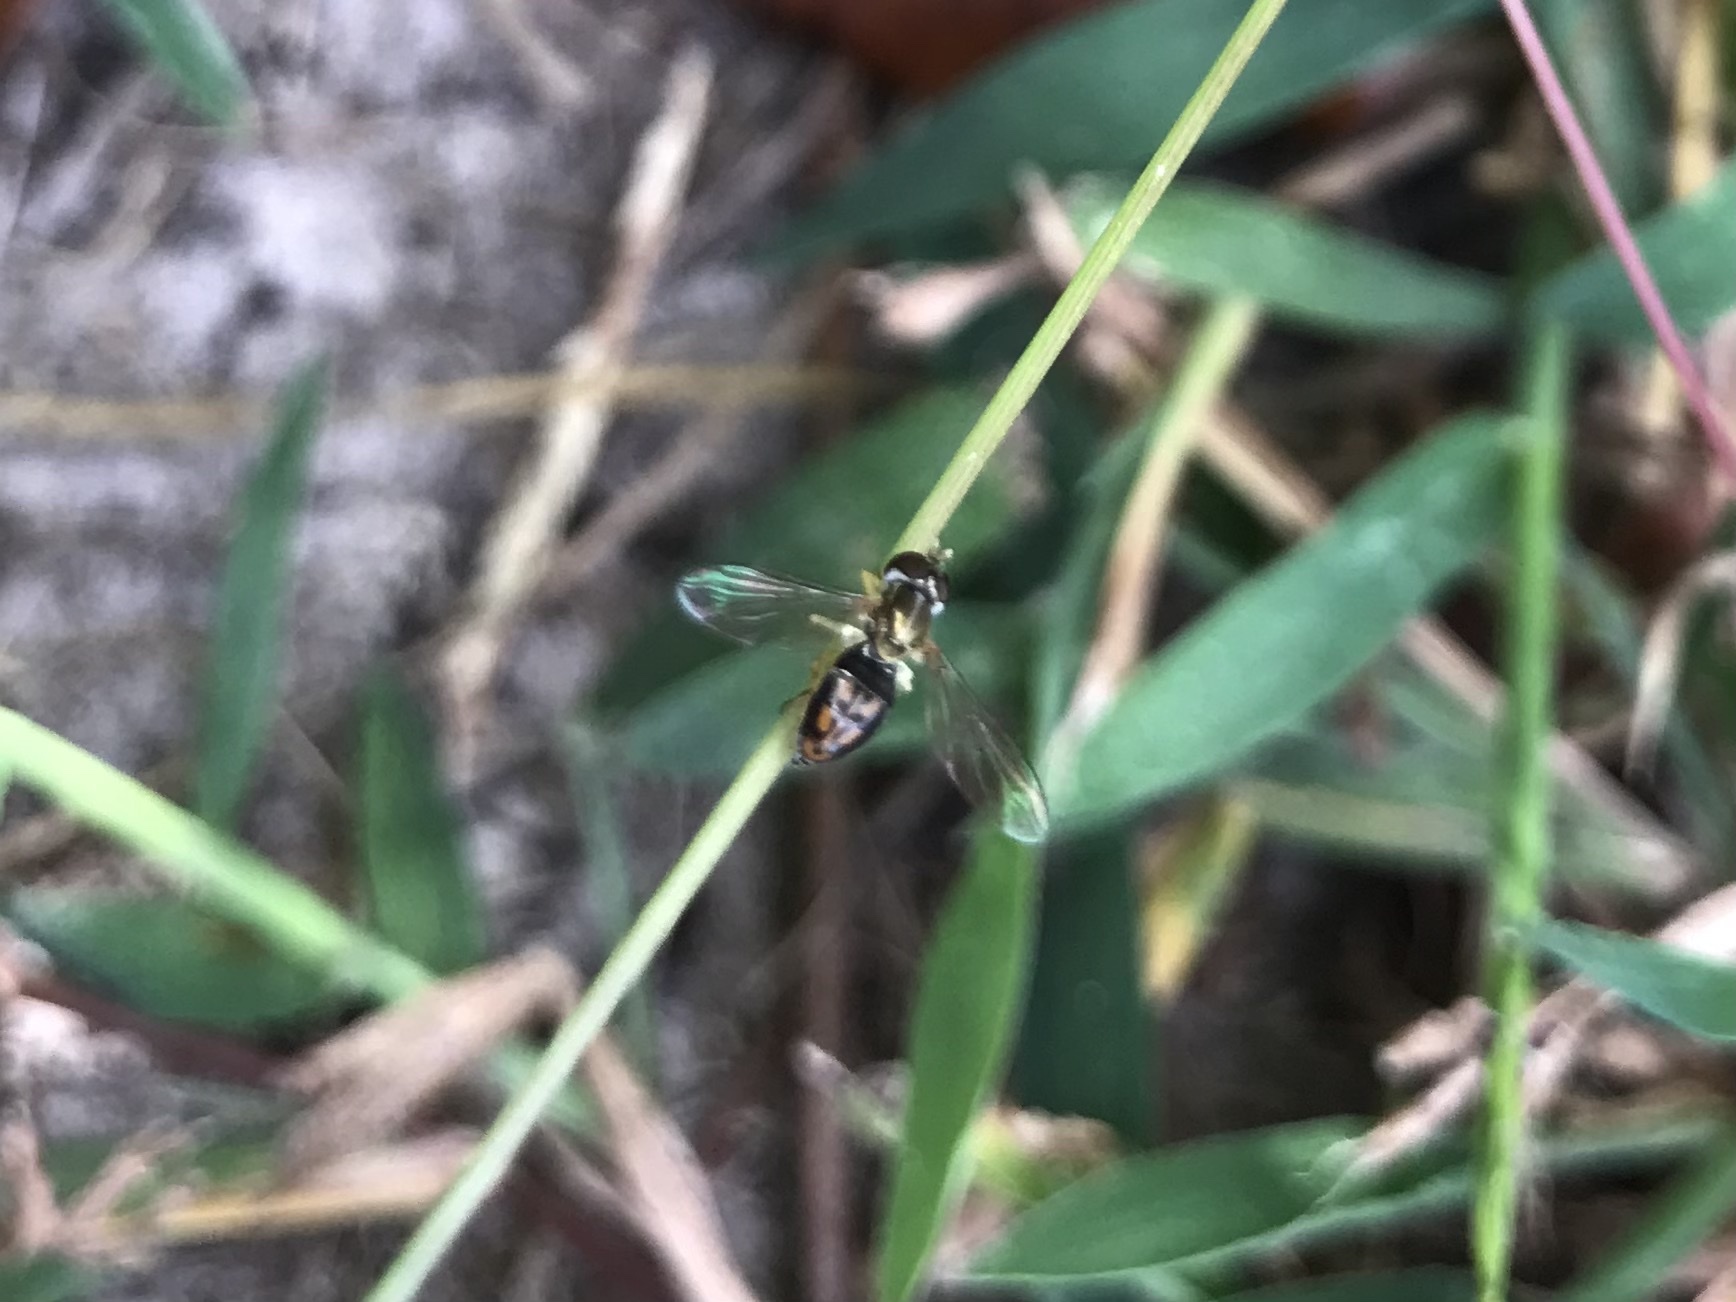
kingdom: Animalia
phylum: Arthropoda
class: Insecta
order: Diptera
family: Syrphidae
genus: Toxomerus
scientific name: Toxomerus marginatus
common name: Syrphid fly
